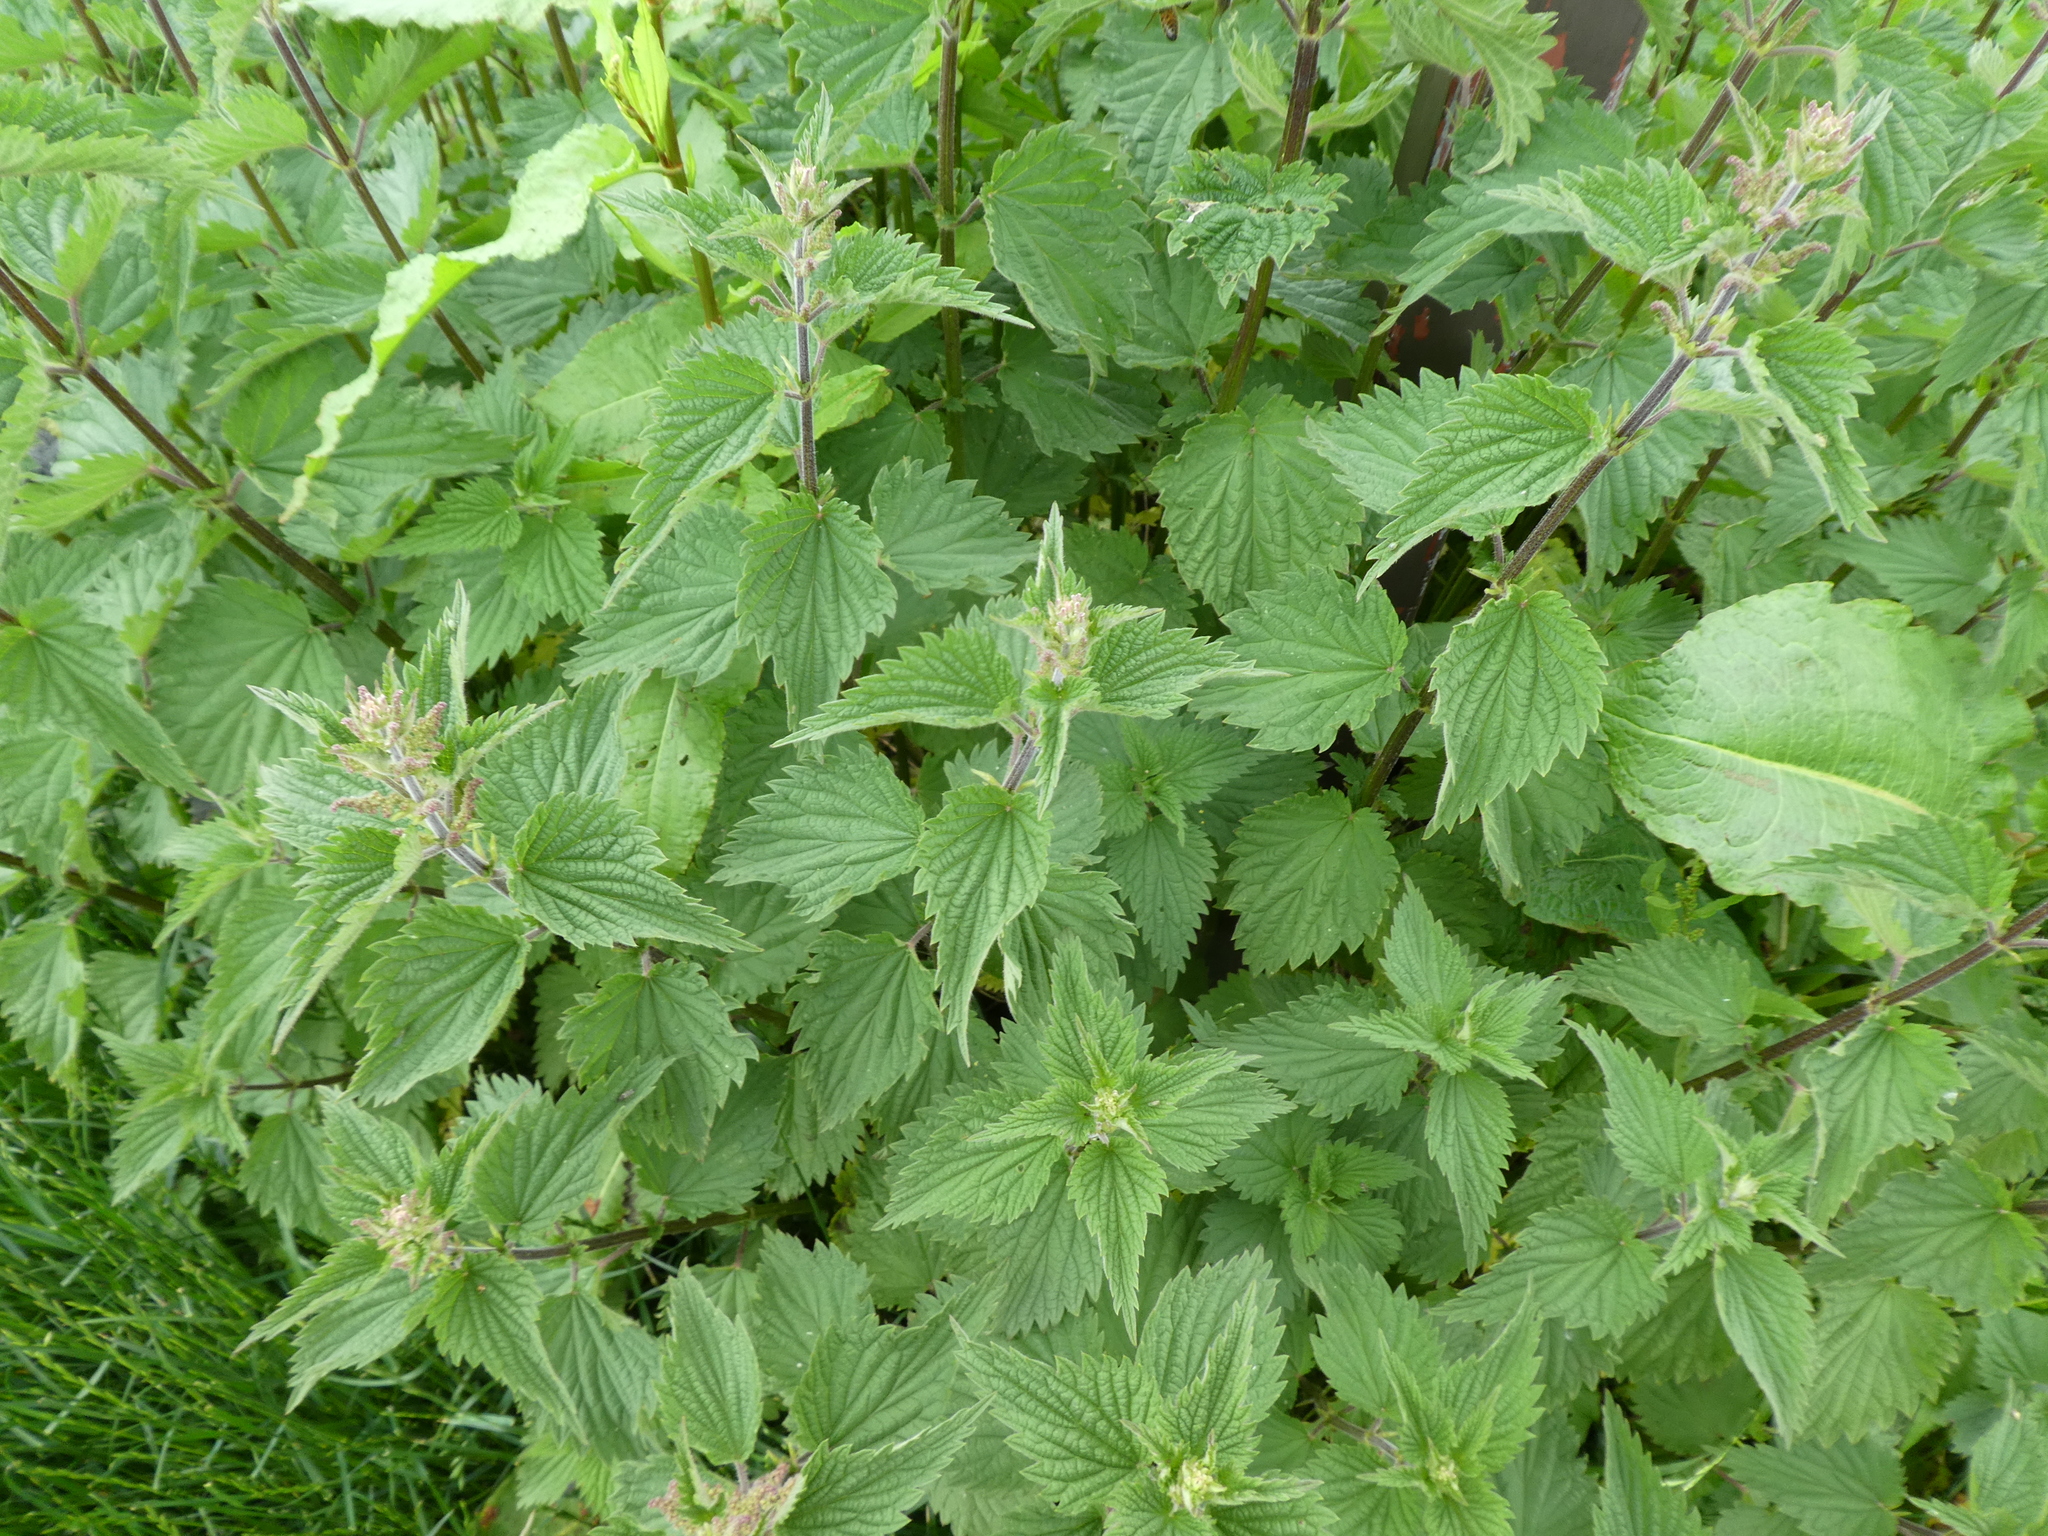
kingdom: Plantae
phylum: Tracheophyta
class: Magnoliopsida
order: Rosales
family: Urticaceae
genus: Urtica
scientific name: Urtica dioica
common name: Common nettle
